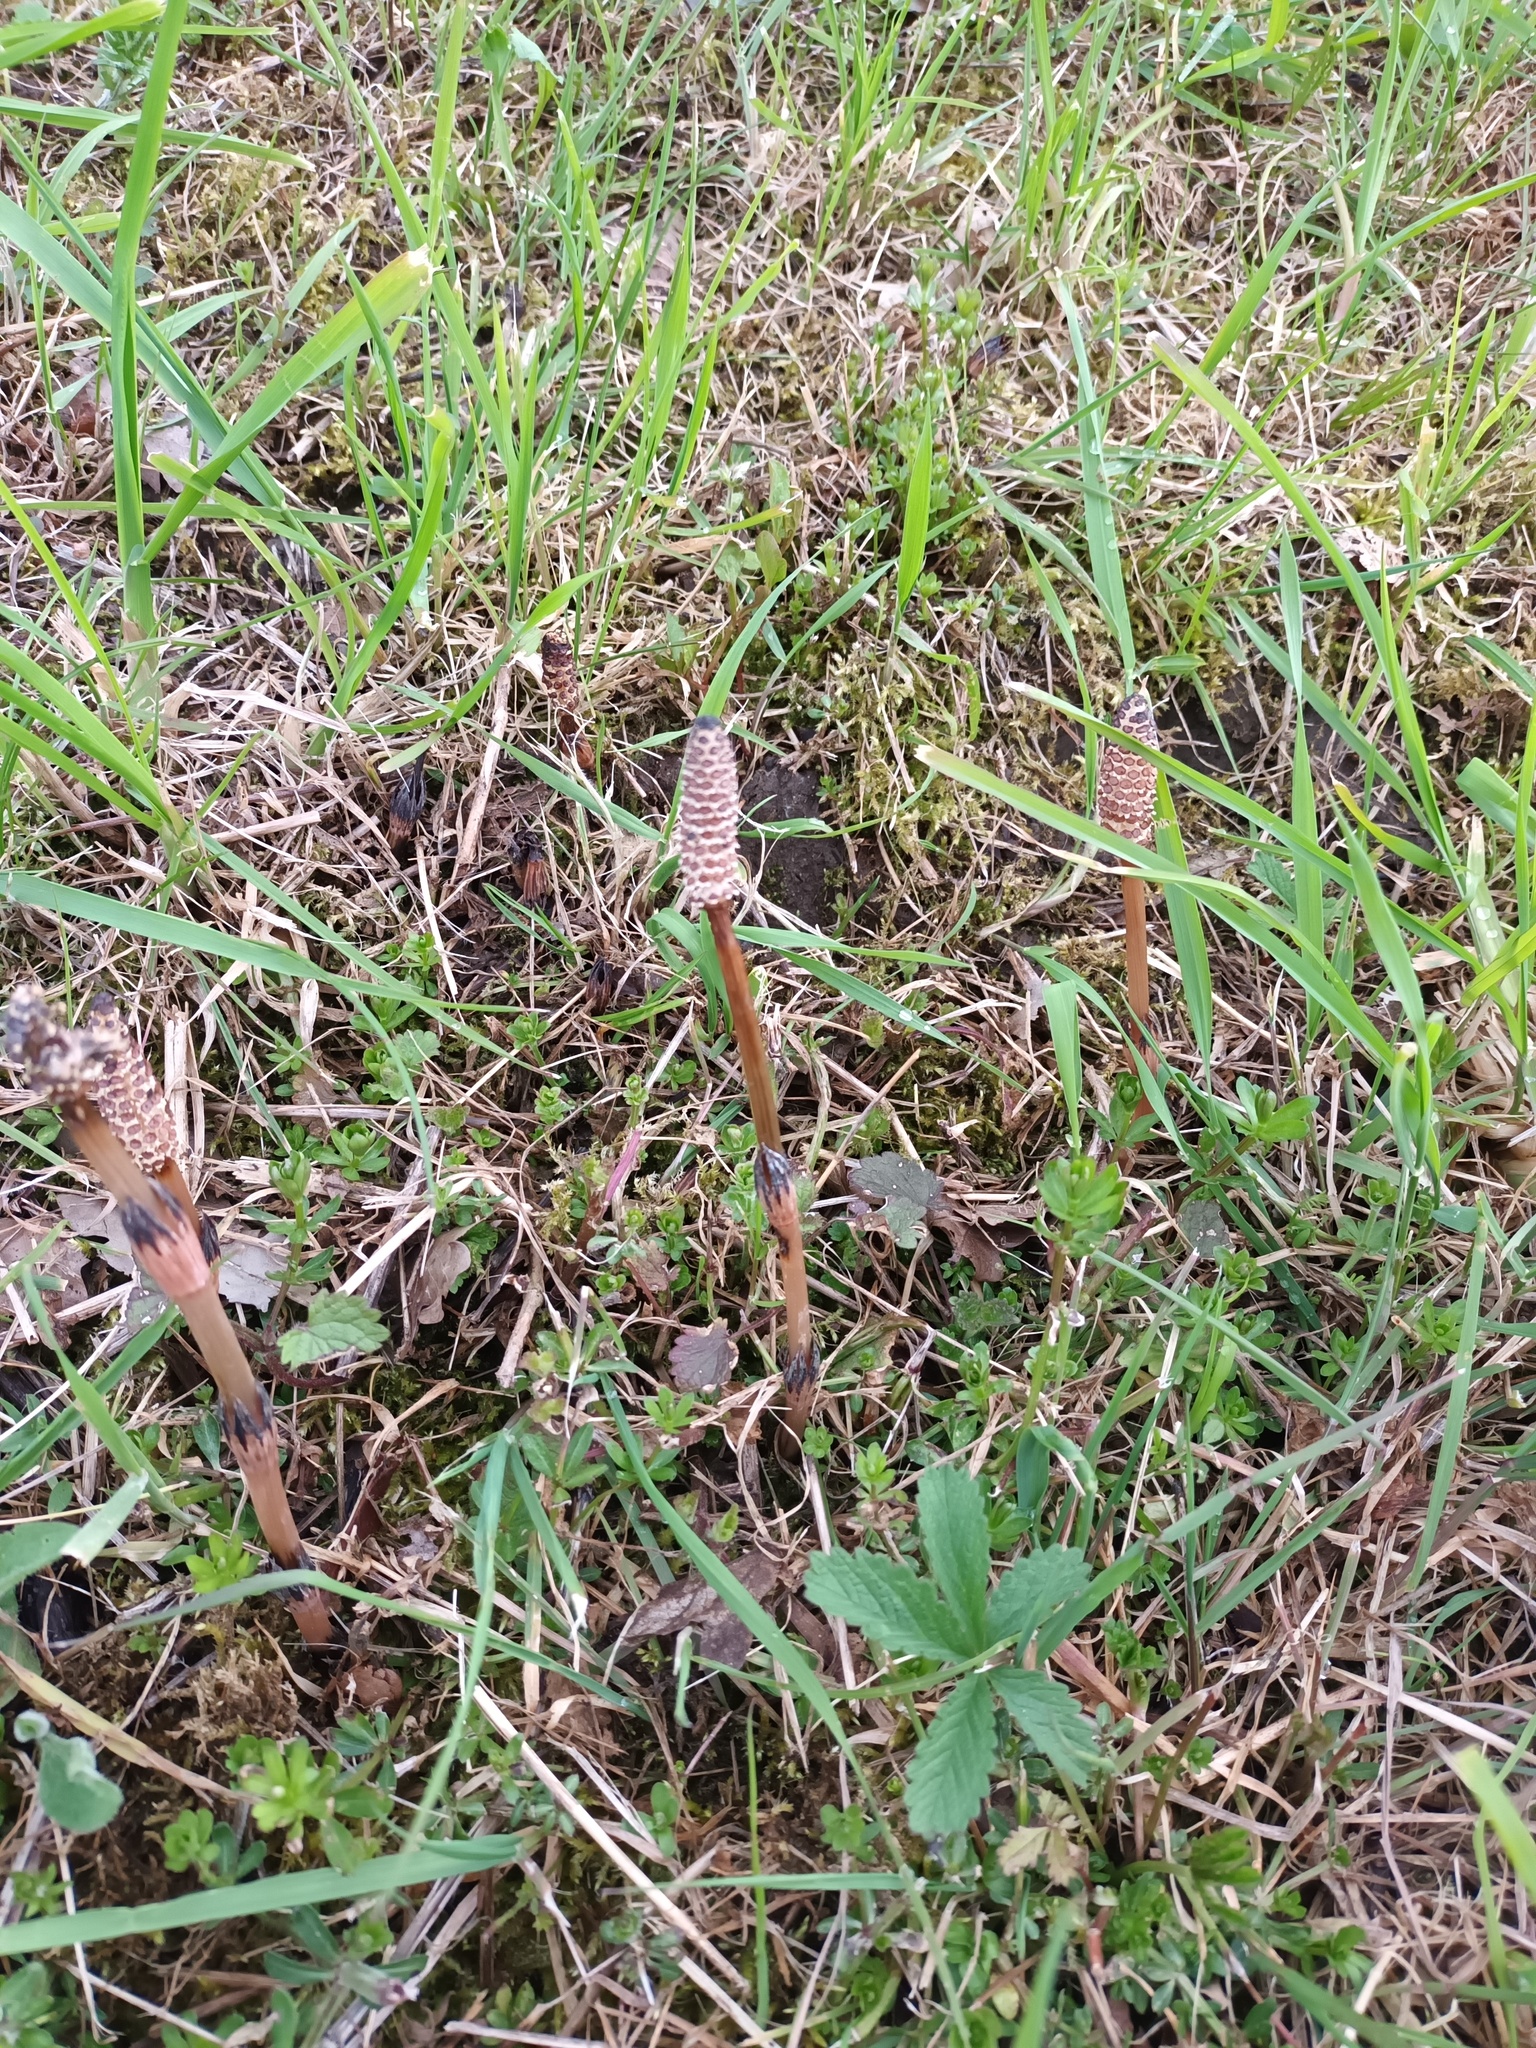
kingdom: Plantae
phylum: Tracheophyta
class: Polypodiopsida
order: Equisetales
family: Equisetaceae
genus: Equisetum
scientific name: Equisetum arvense
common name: Field horsetail
